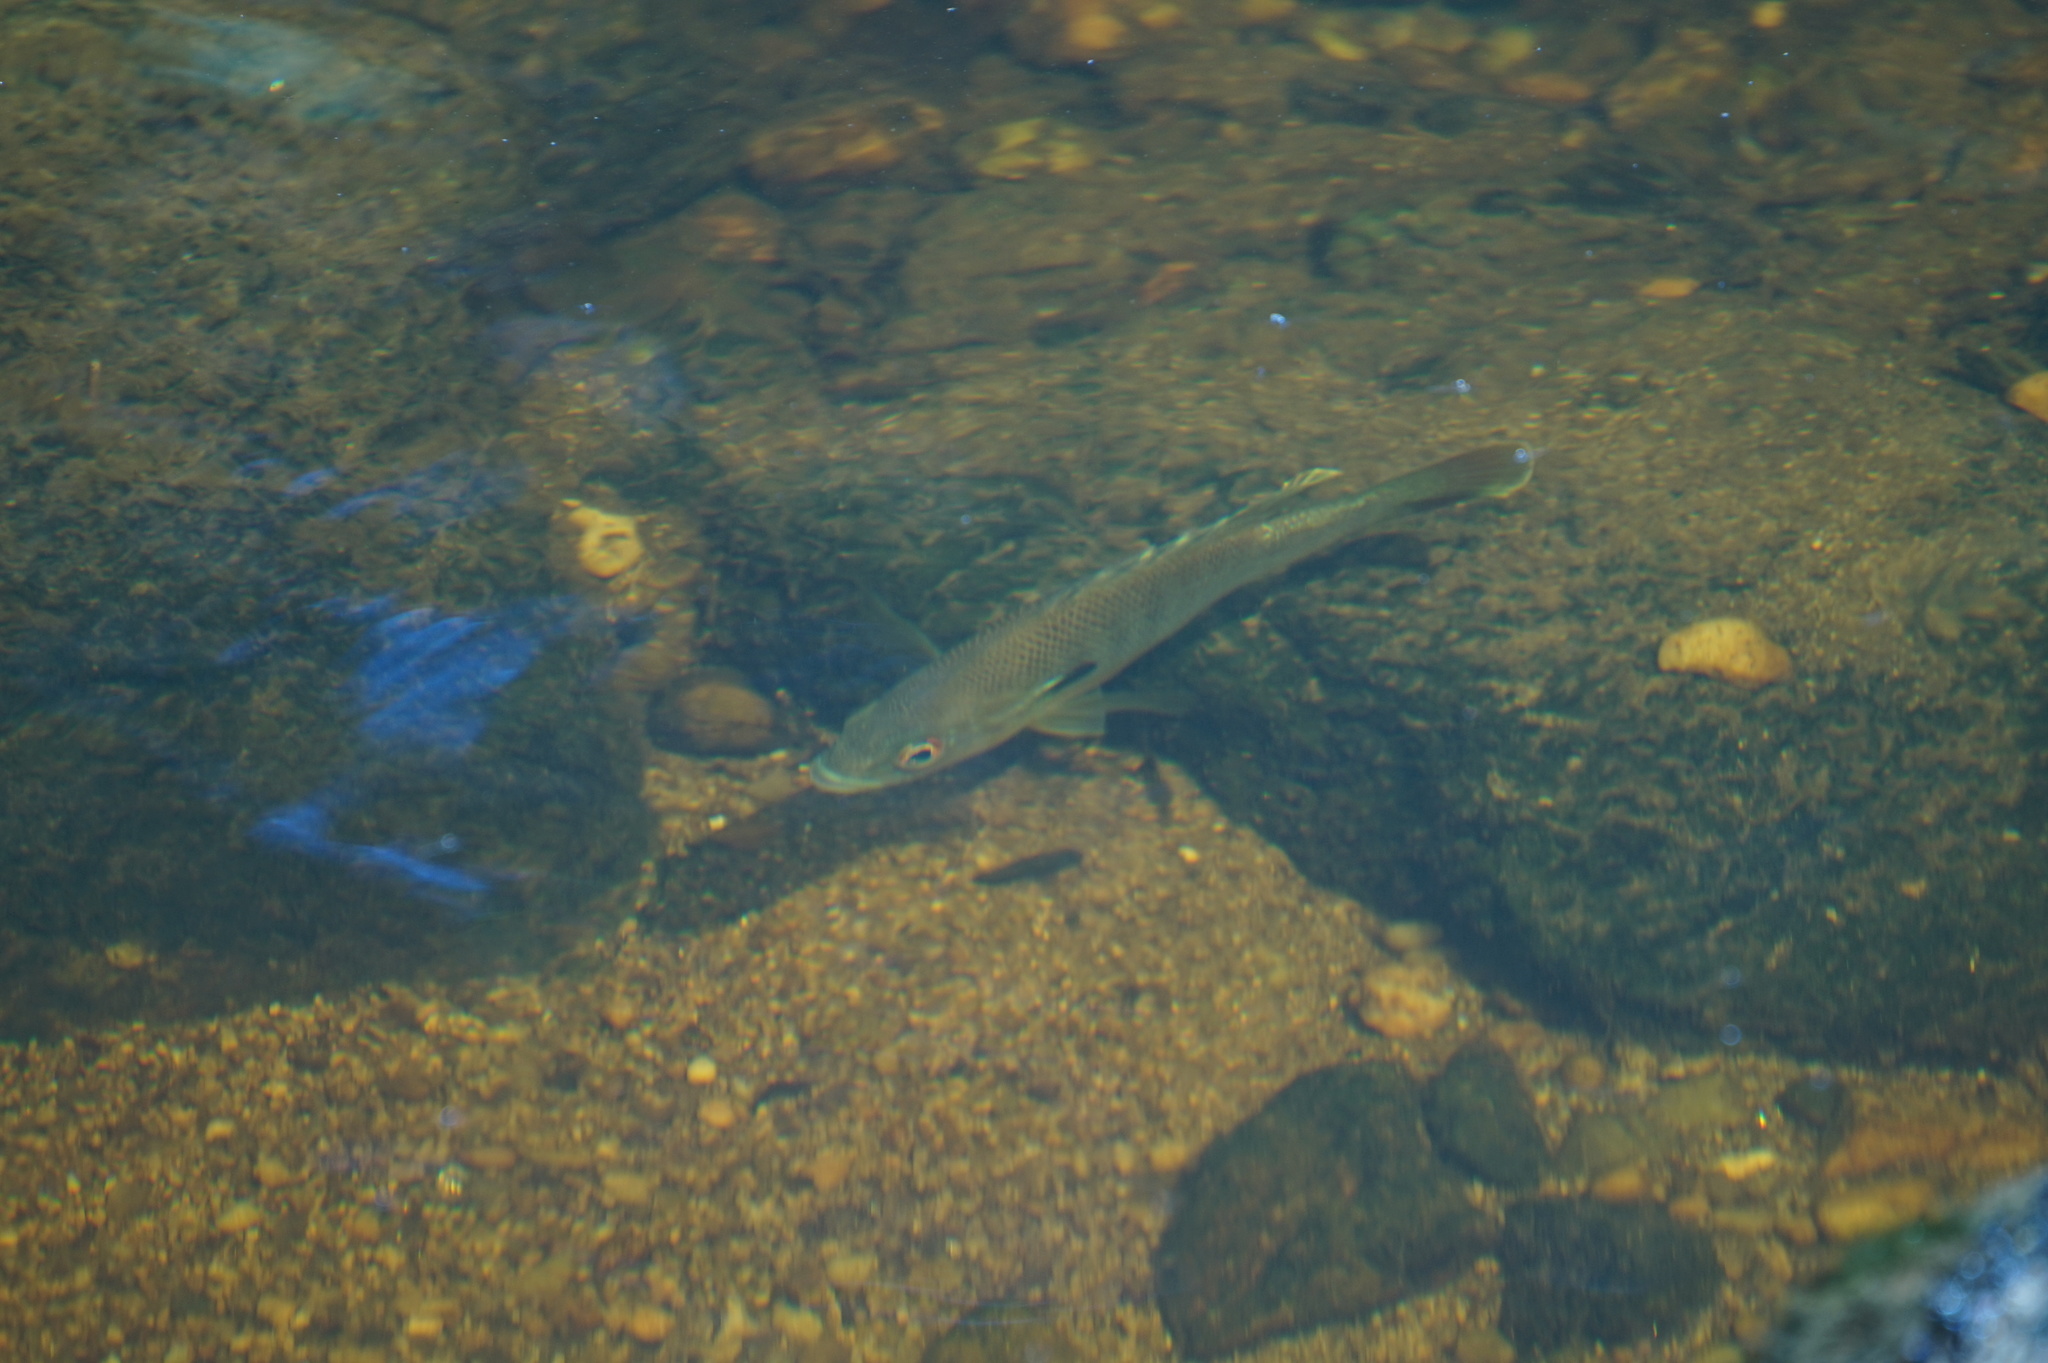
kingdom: Animalia
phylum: Chordata
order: Perciformes
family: Centrarchidae
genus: Lepomis
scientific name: Lepomis auritus
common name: Redbreast sunfish
